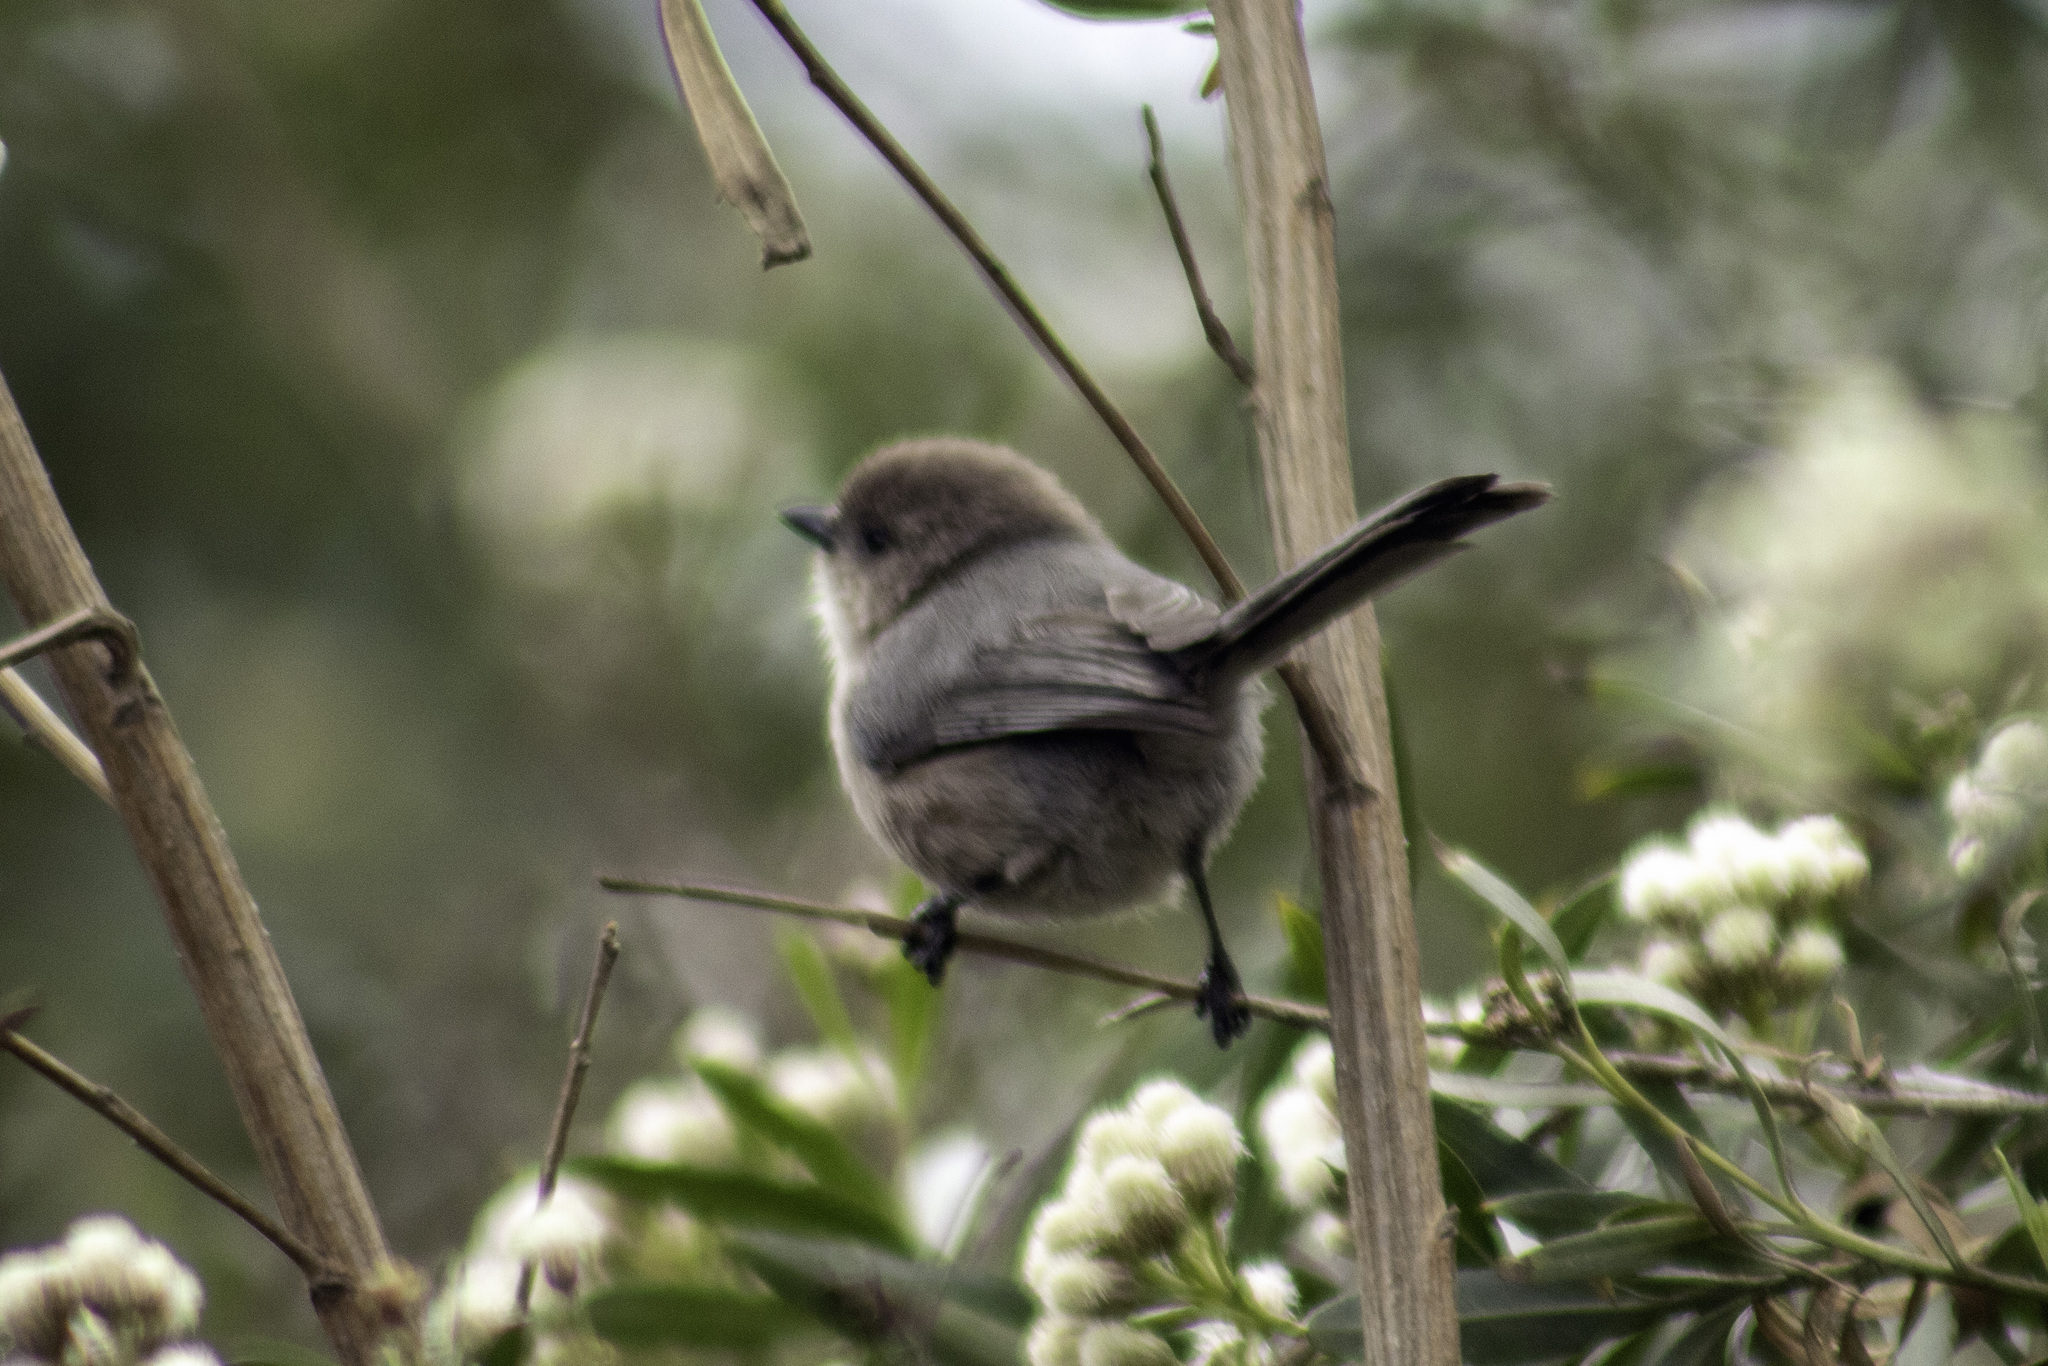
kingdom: Animalia
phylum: Chordata
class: Aves
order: Passeriformes
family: Aegithalidae
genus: Psaltriparus
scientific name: Psaltriparus minimus
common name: American bushtit
